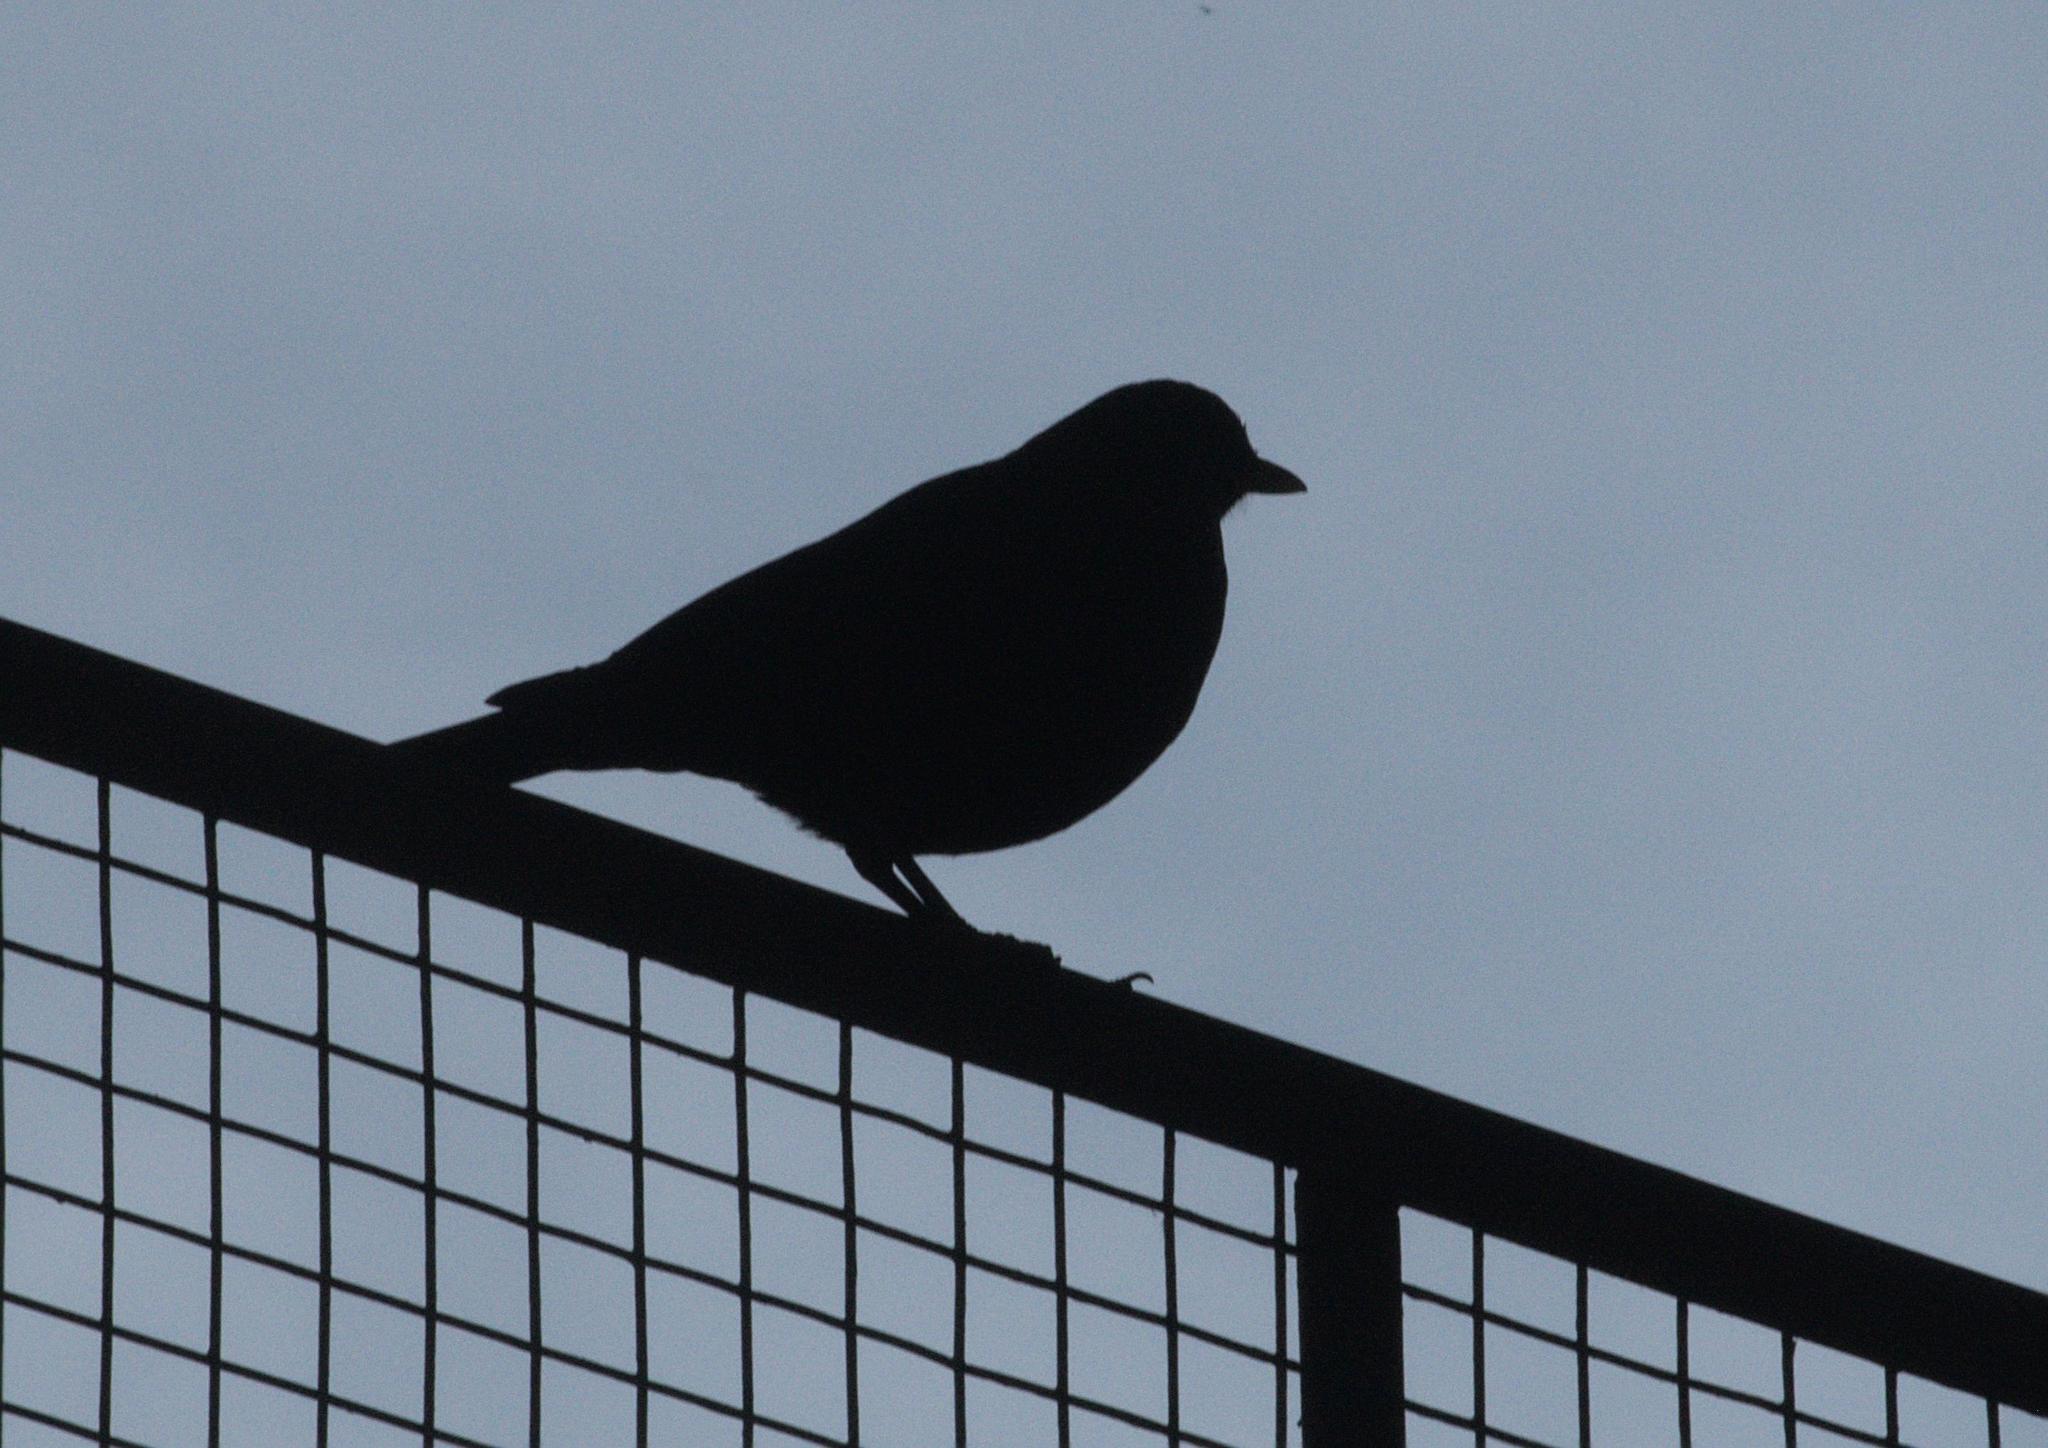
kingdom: Animalia
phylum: Chordata
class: Aves
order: Passeriformes
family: Muscicapidae
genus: Myophonus
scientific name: Myophonus caeruleus
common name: Blue whistling-thrush
